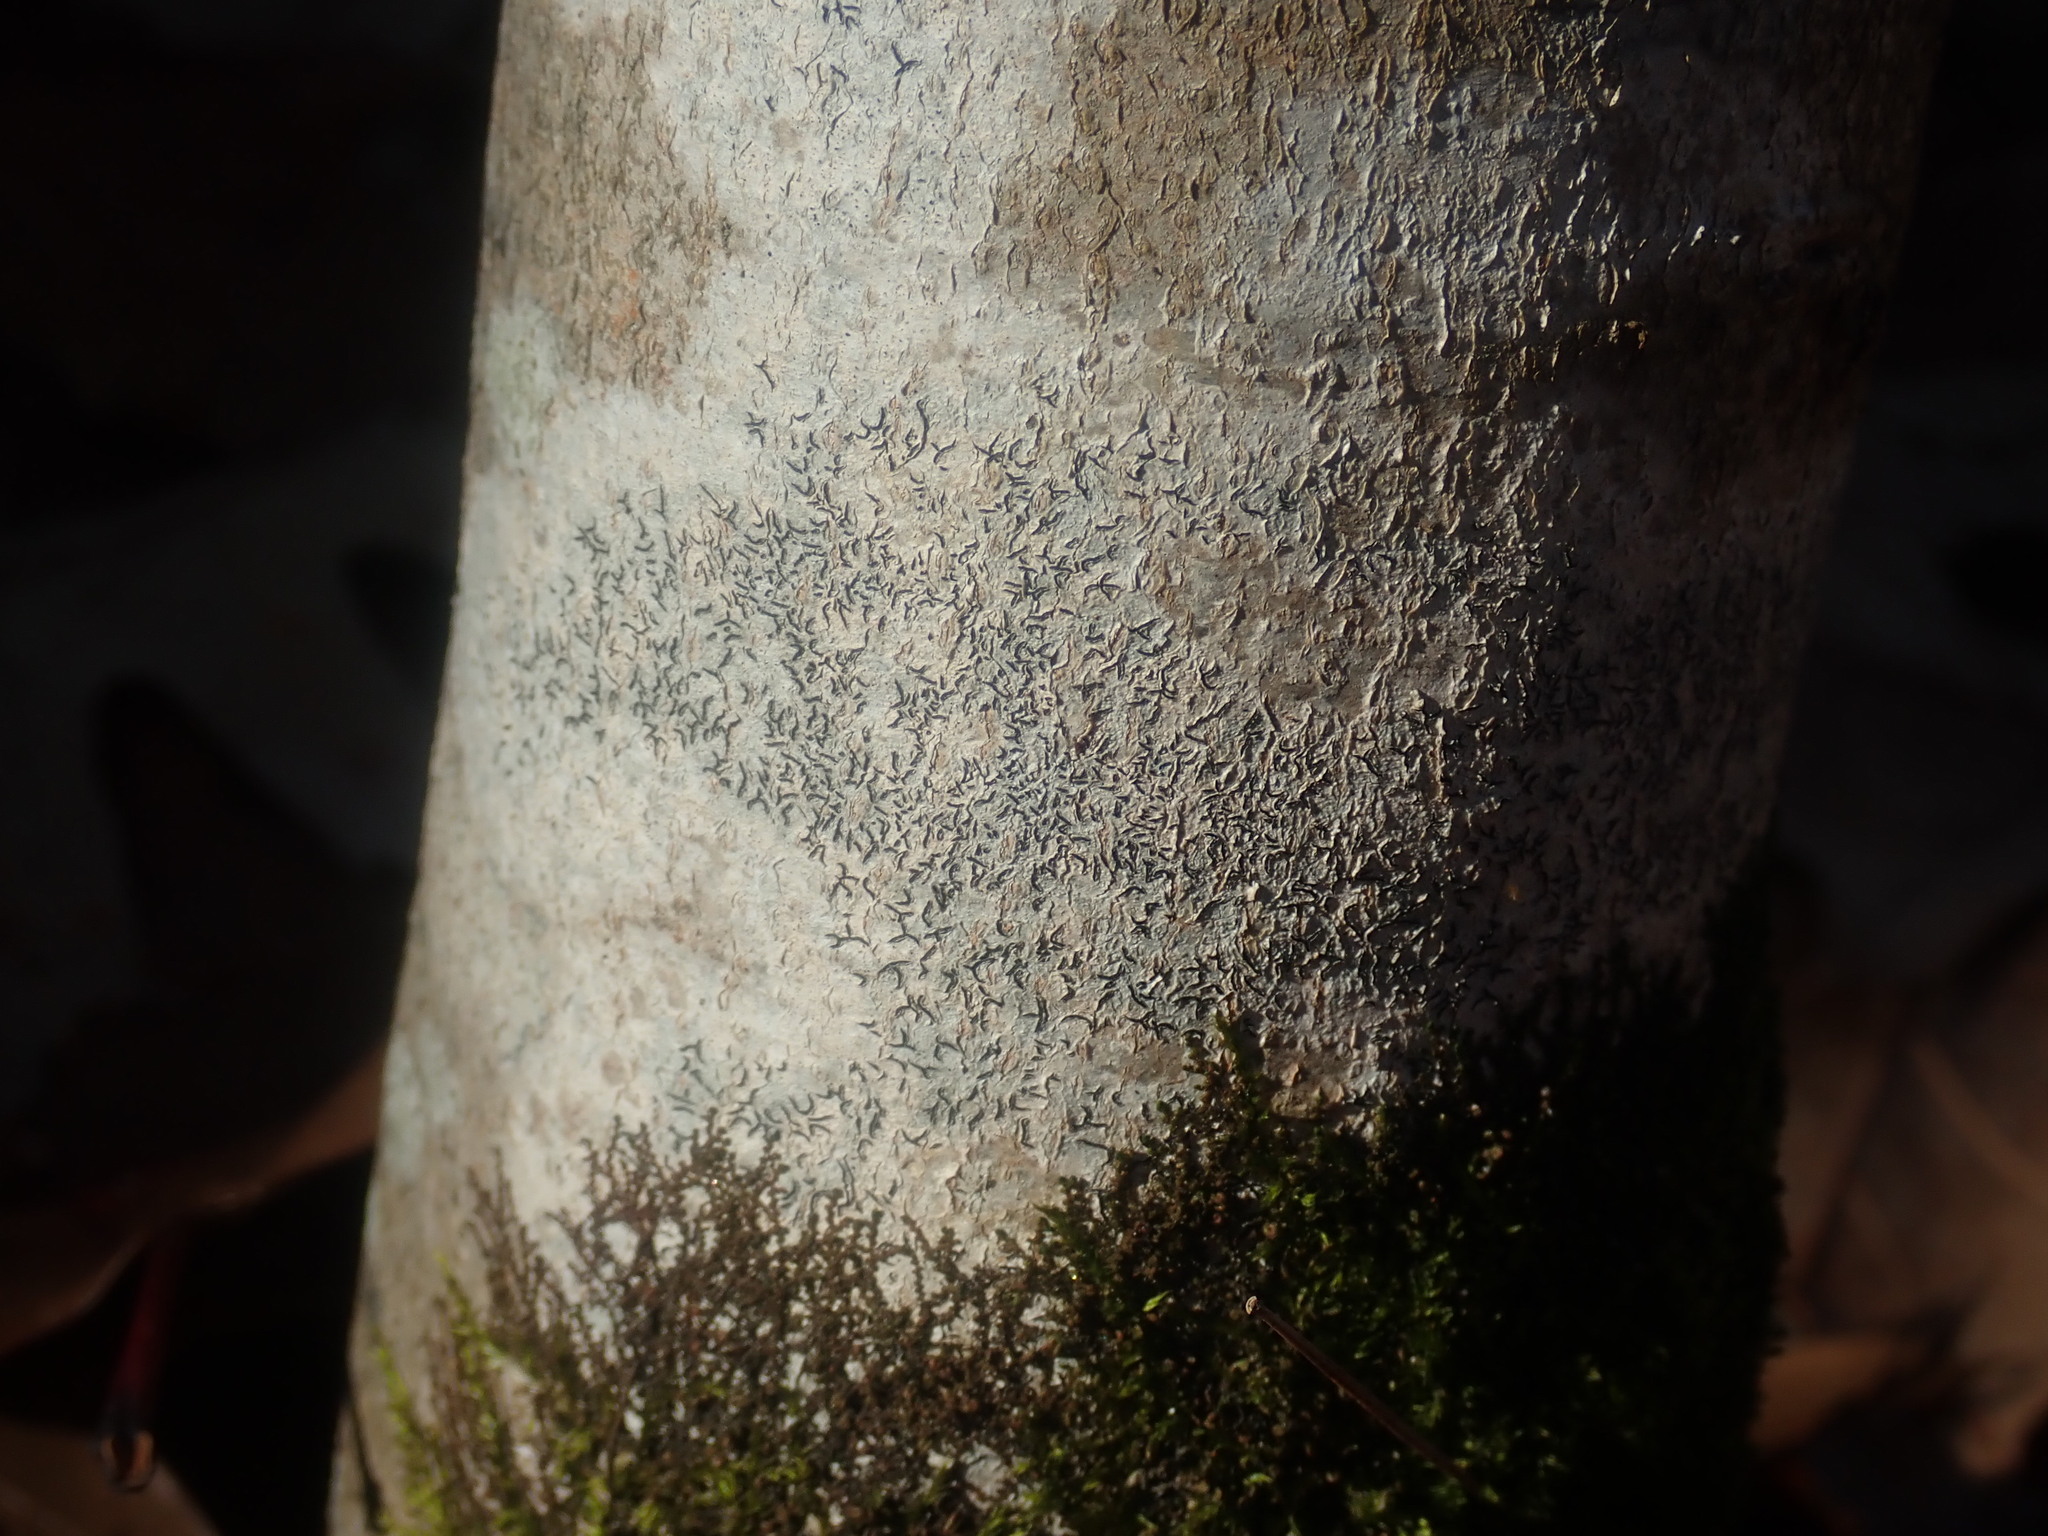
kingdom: Fungi
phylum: Ascomycota
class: Lecanoromycetes
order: Ostropales
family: Graphidaceae
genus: Graphis
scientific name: Graphis scripta
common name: Script lichen
